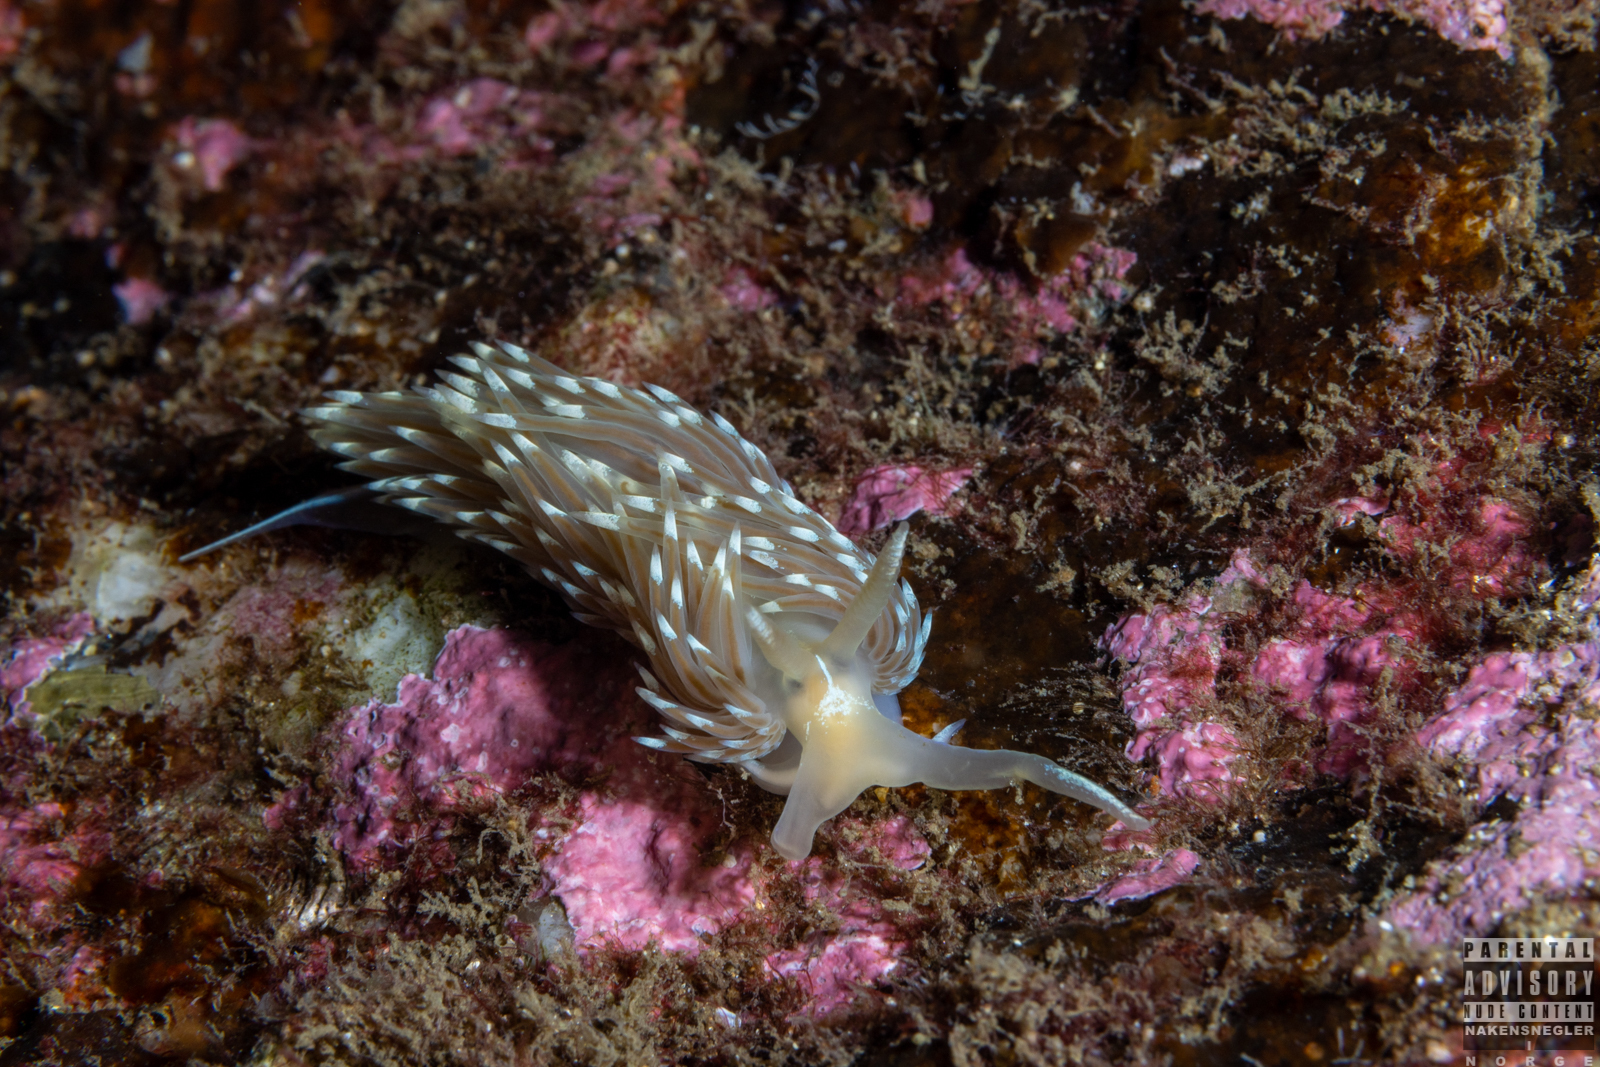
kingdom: Animalia
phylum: Mollusca
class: Gastropoda
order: Nudibranchia
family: Facelinidae
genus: Facelina
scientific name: Facelina bostoniensis
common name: Boston facelina
